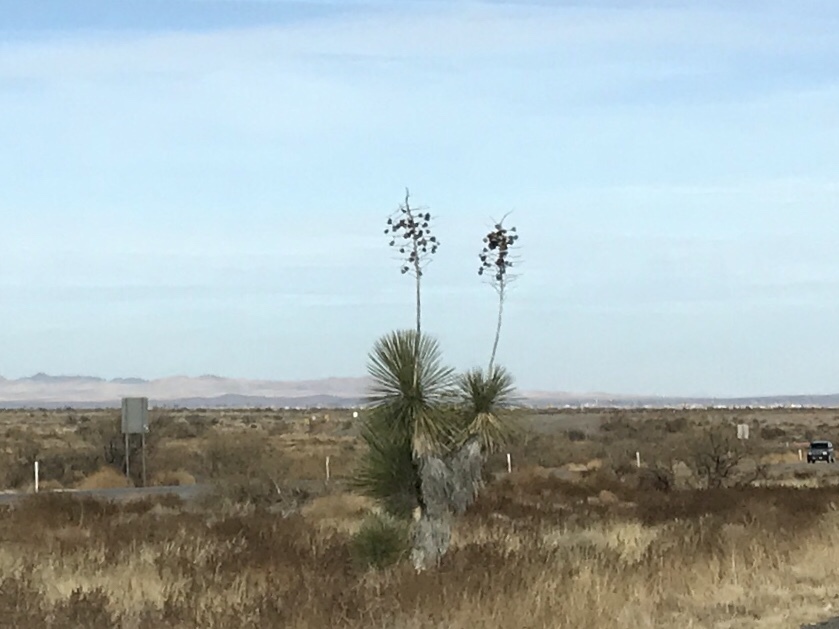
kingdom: Plantae
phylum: Tracheophyta
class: Liliopsida
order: Asparagales
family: Asparagaceae
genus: Yucca
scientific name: Yucca elata
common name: Palmella
